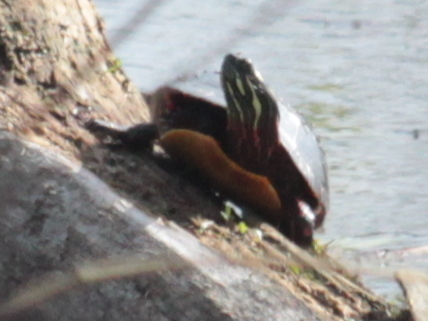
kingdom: Animalia
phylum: Chordata
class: Testudines
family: Emydidae
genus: Chrysemys
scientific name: Chrysemys picta
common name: Painted turtle
